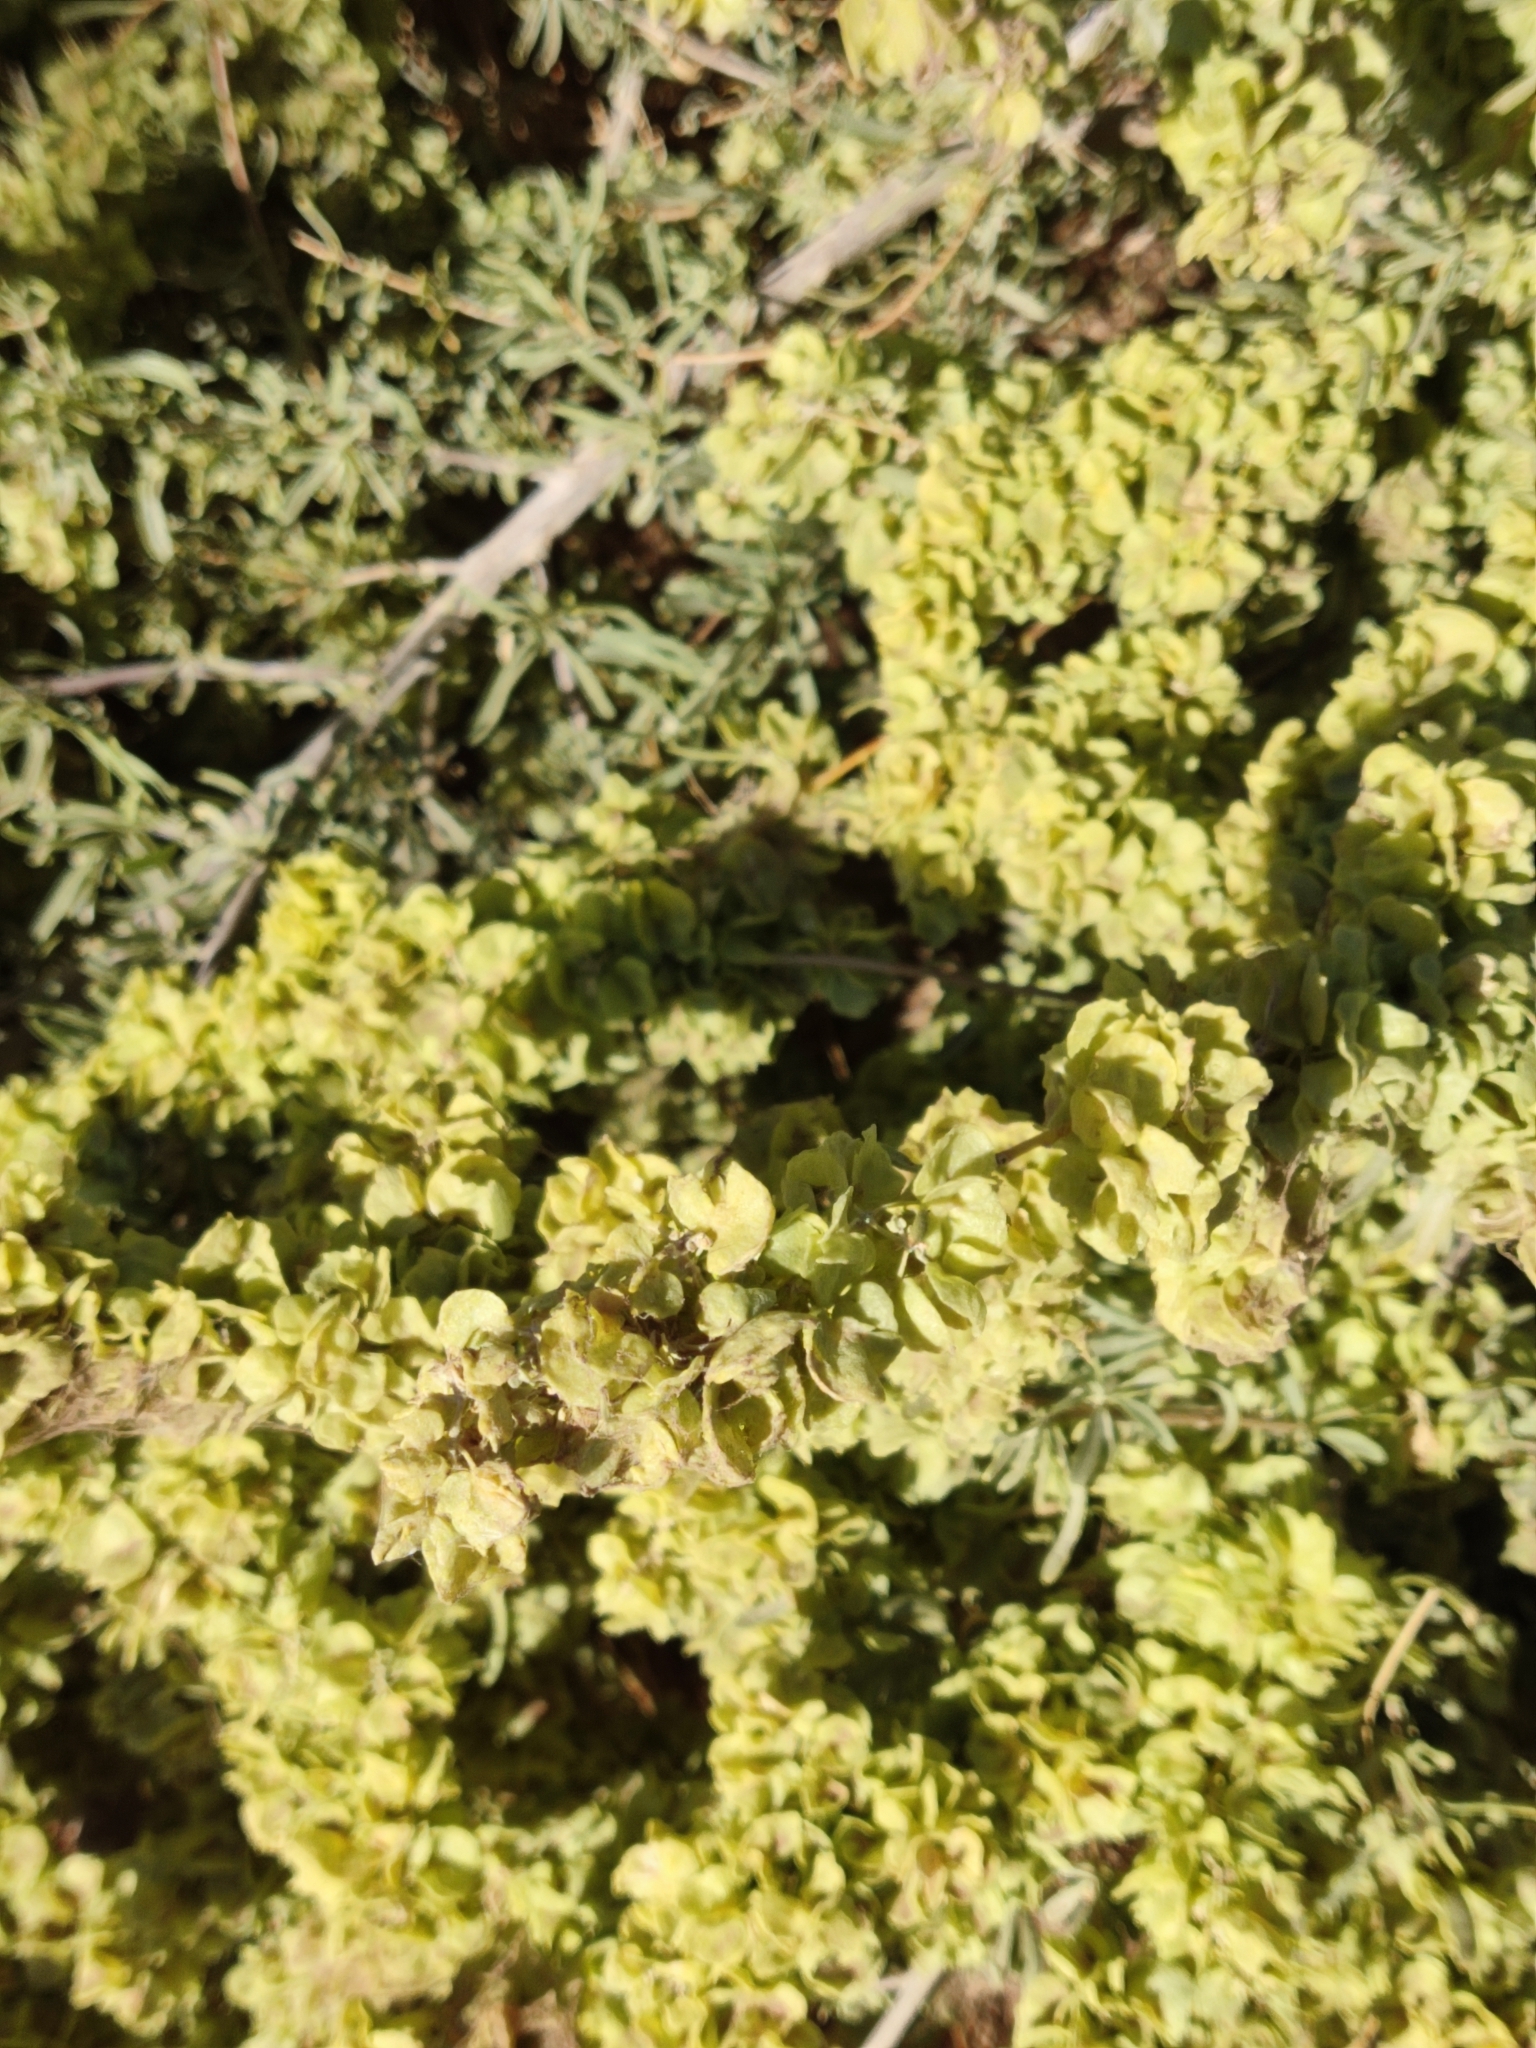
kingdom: Plantae
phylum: Tracheophyta
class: Magnoliopsida
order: Caryophyllales
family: Amaranthaceae
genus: Atriplex
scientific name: Atriplex canescens
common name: Four-wing saltbush
